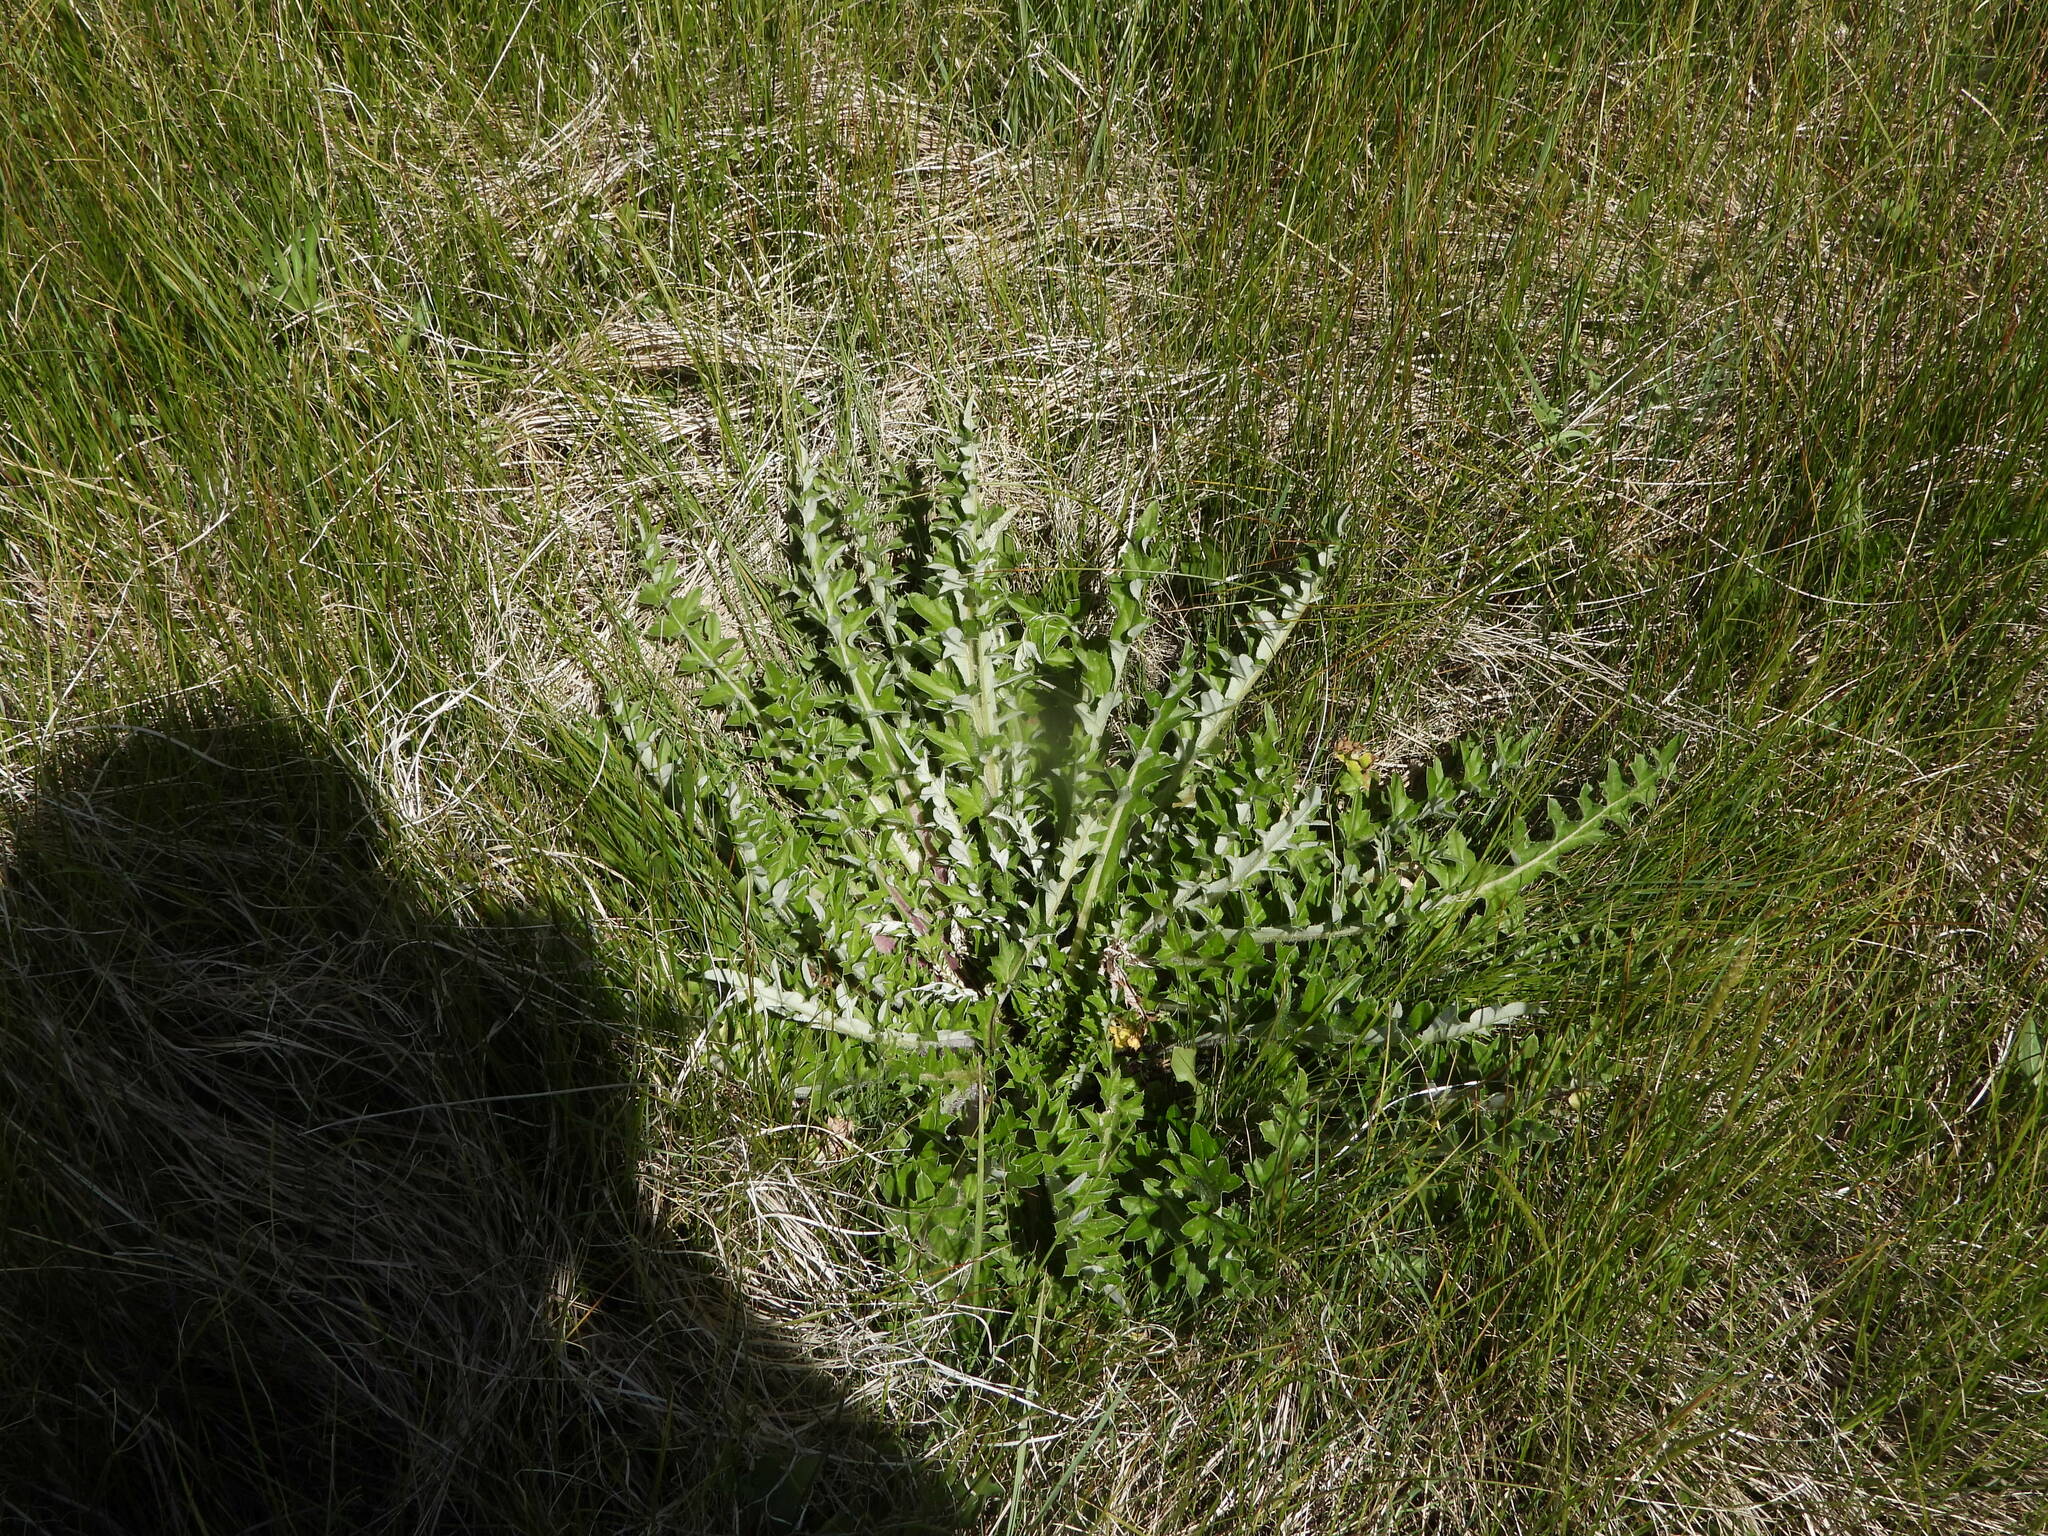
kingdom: Plantae
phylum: Tracheophyta
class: Magnoliopsida
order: Asterales
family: Asteraceae
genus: Cirsium
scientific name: Cirsium tioganum
